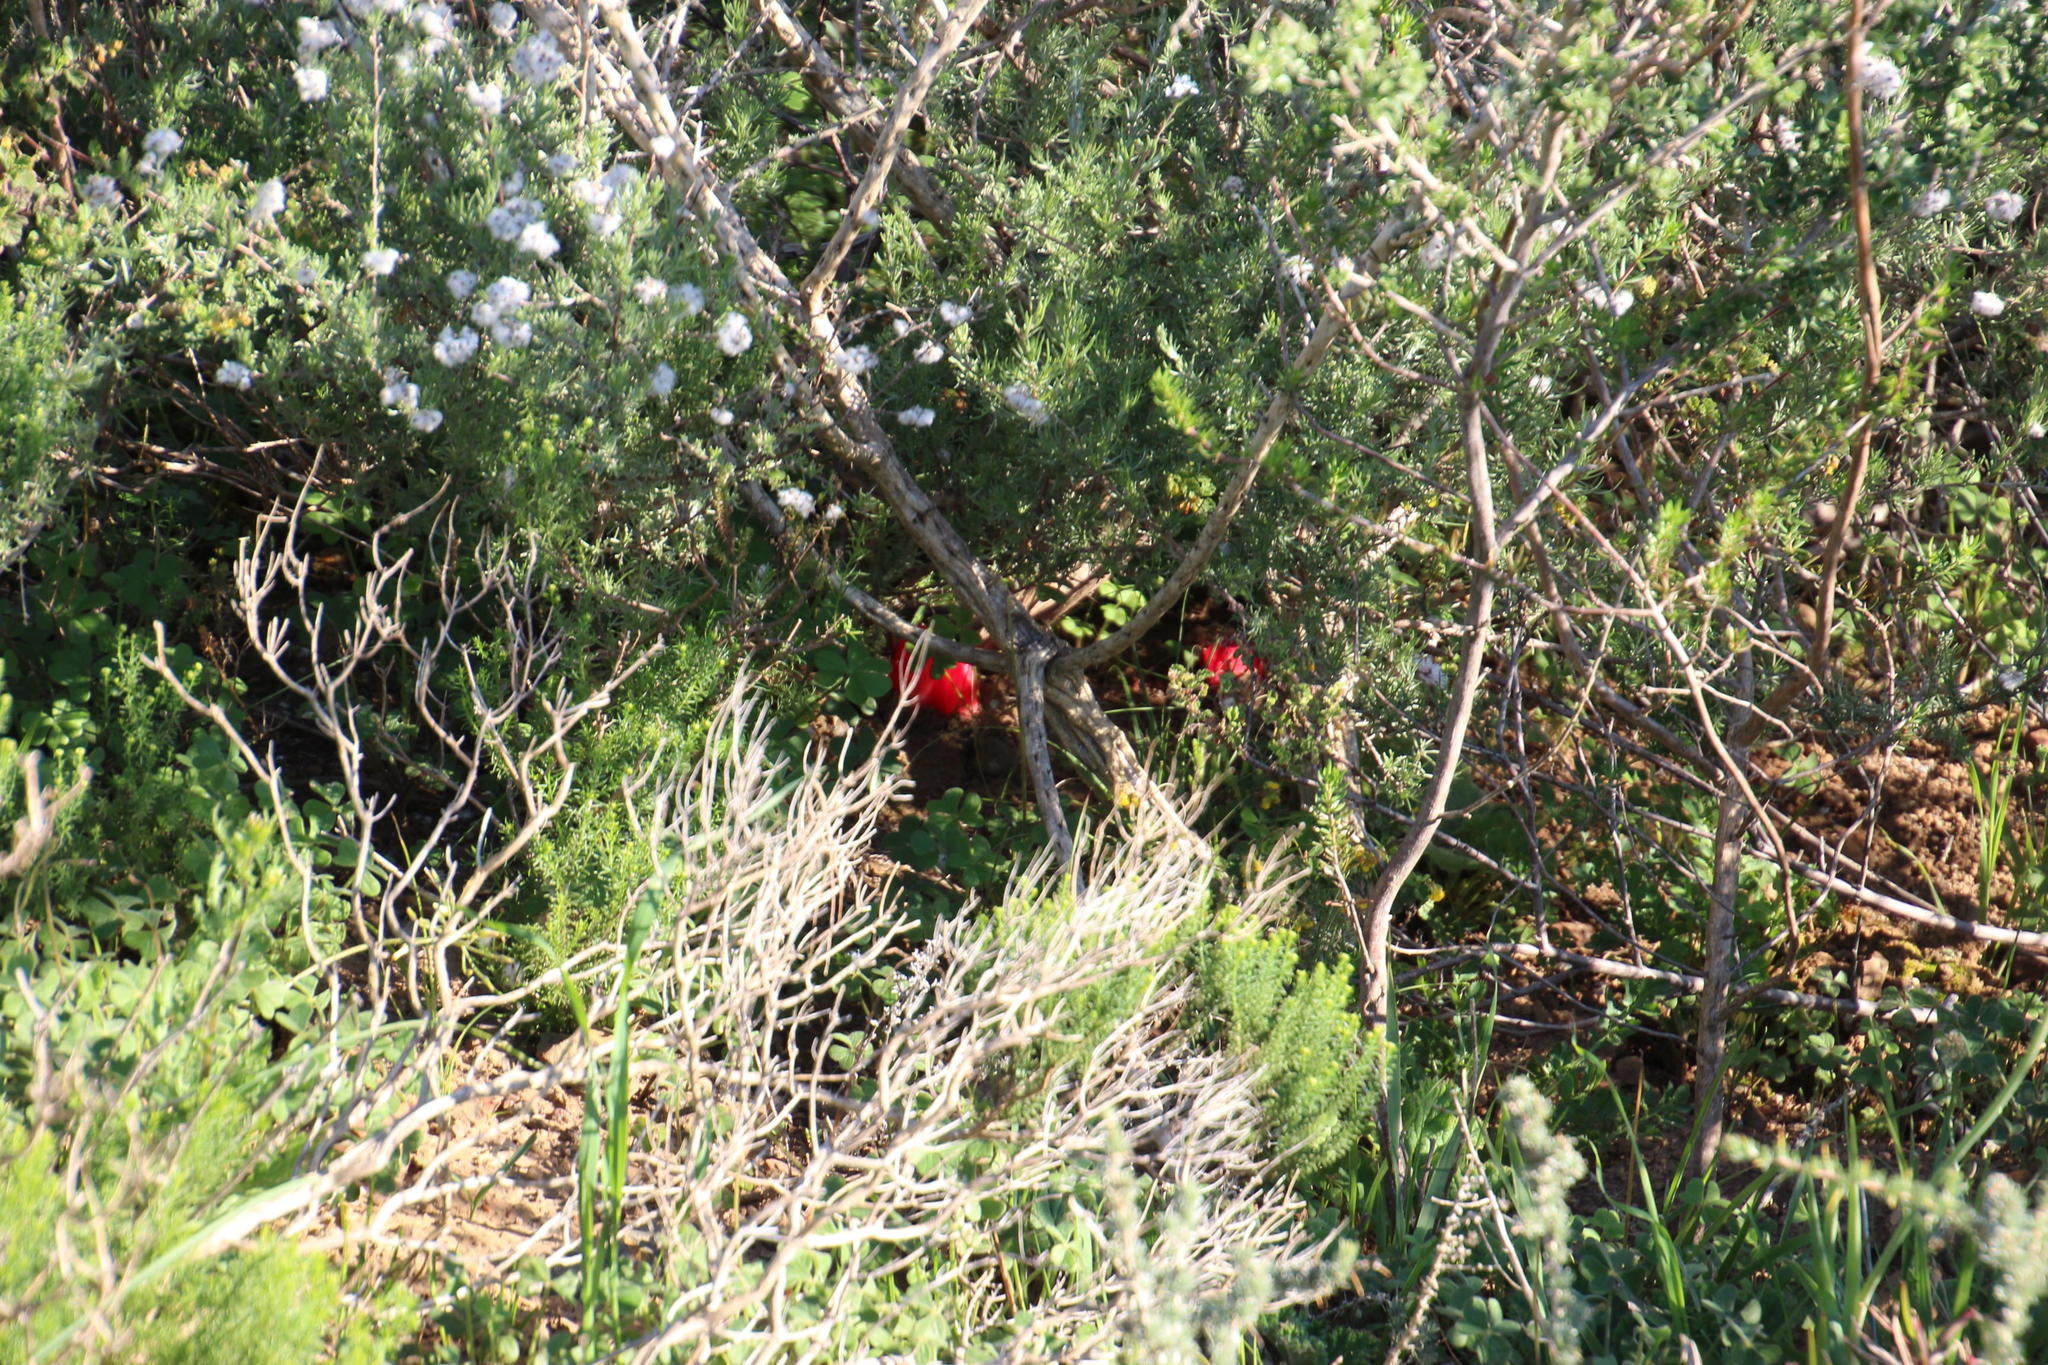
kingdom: Plantae
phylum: Tracheophyta
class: Magnoliopsida
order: Malvales
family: Cytinaceae
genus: Cytinus
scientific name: Cytinus sanguineus
